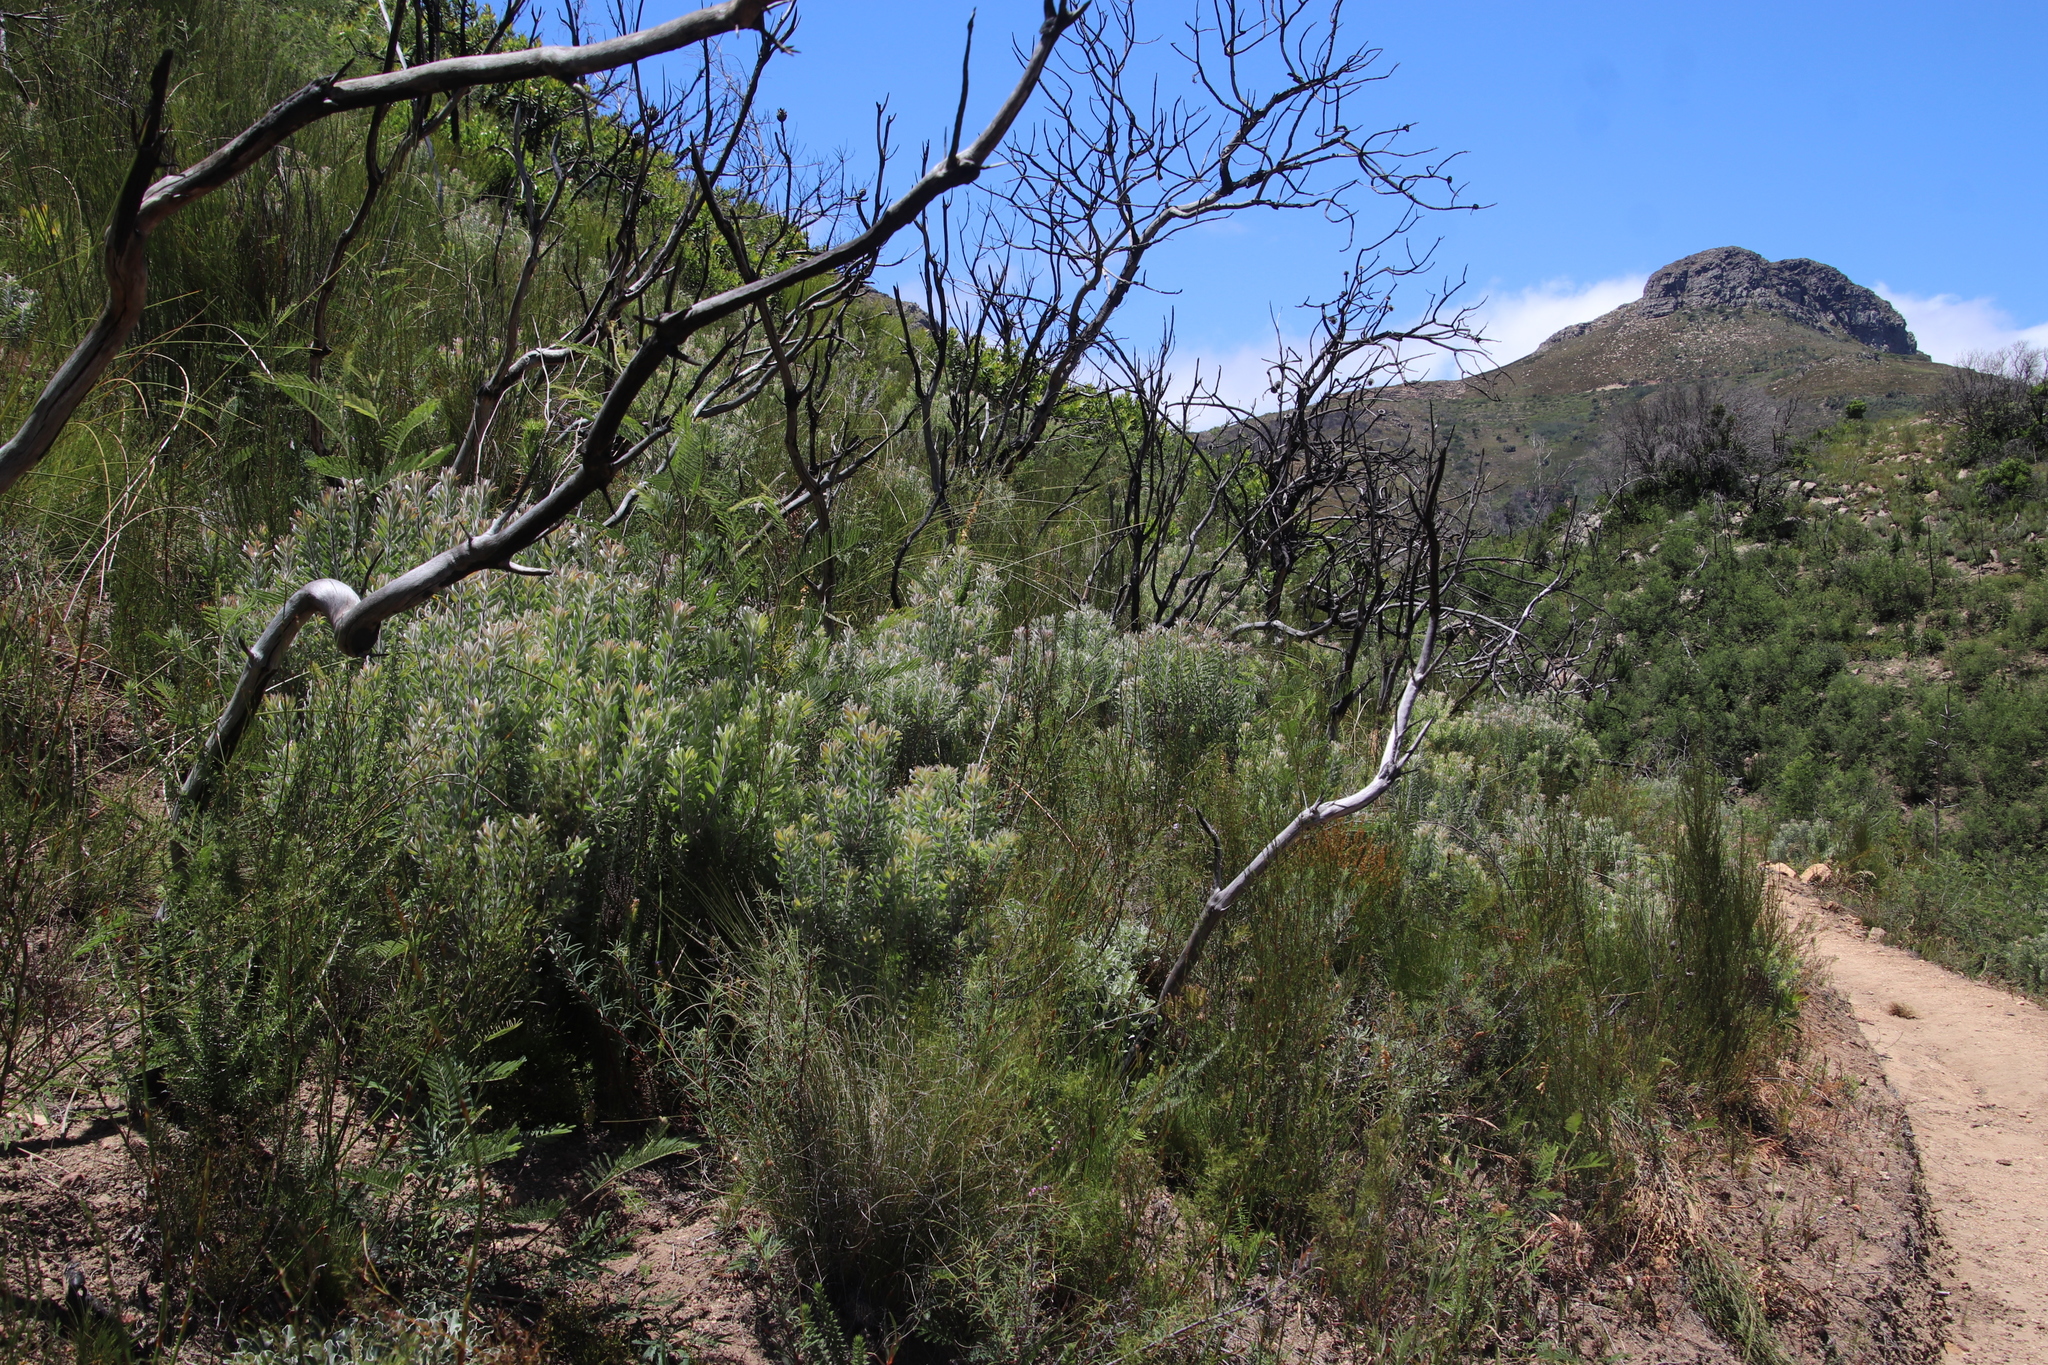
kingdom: Plantae
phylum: Tracheophyta
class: Magnoliopsida
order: Proteales
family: Proteaceae
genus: Leucadendron
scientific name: Leucadendron rubrum
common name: Spinning top
